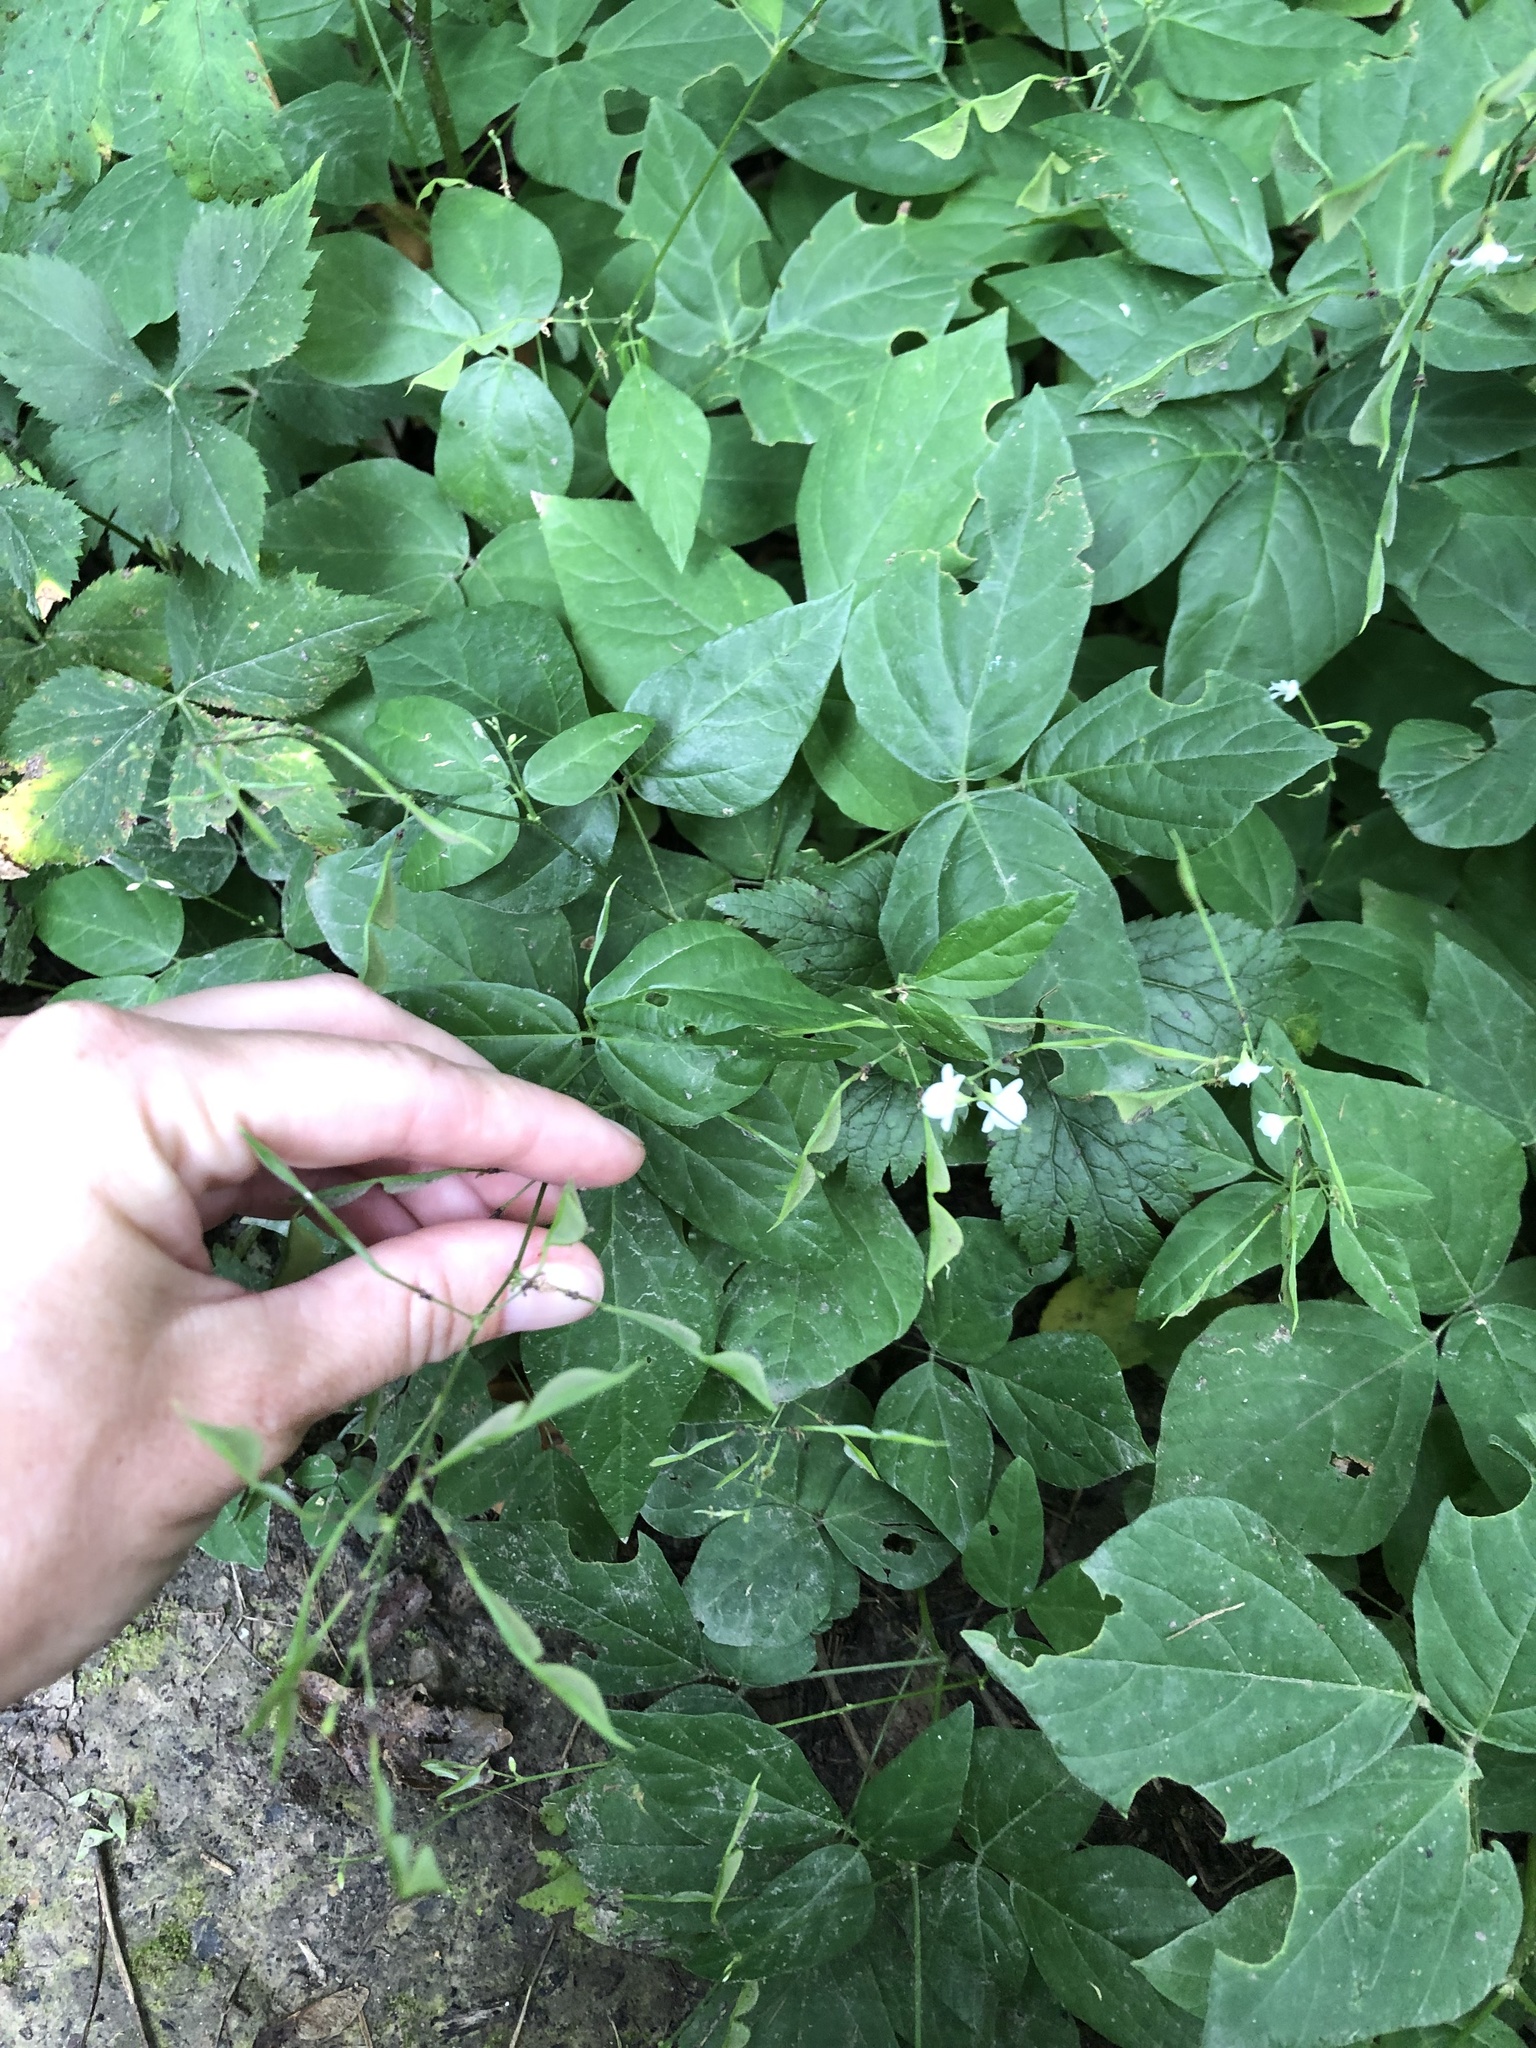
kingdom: Plantae
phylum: Tracheophyta
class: Magnoliopsida
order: Fabales
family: Fabaceae
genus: Hylodesmum
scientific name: Hylodesmum pauciflorum
